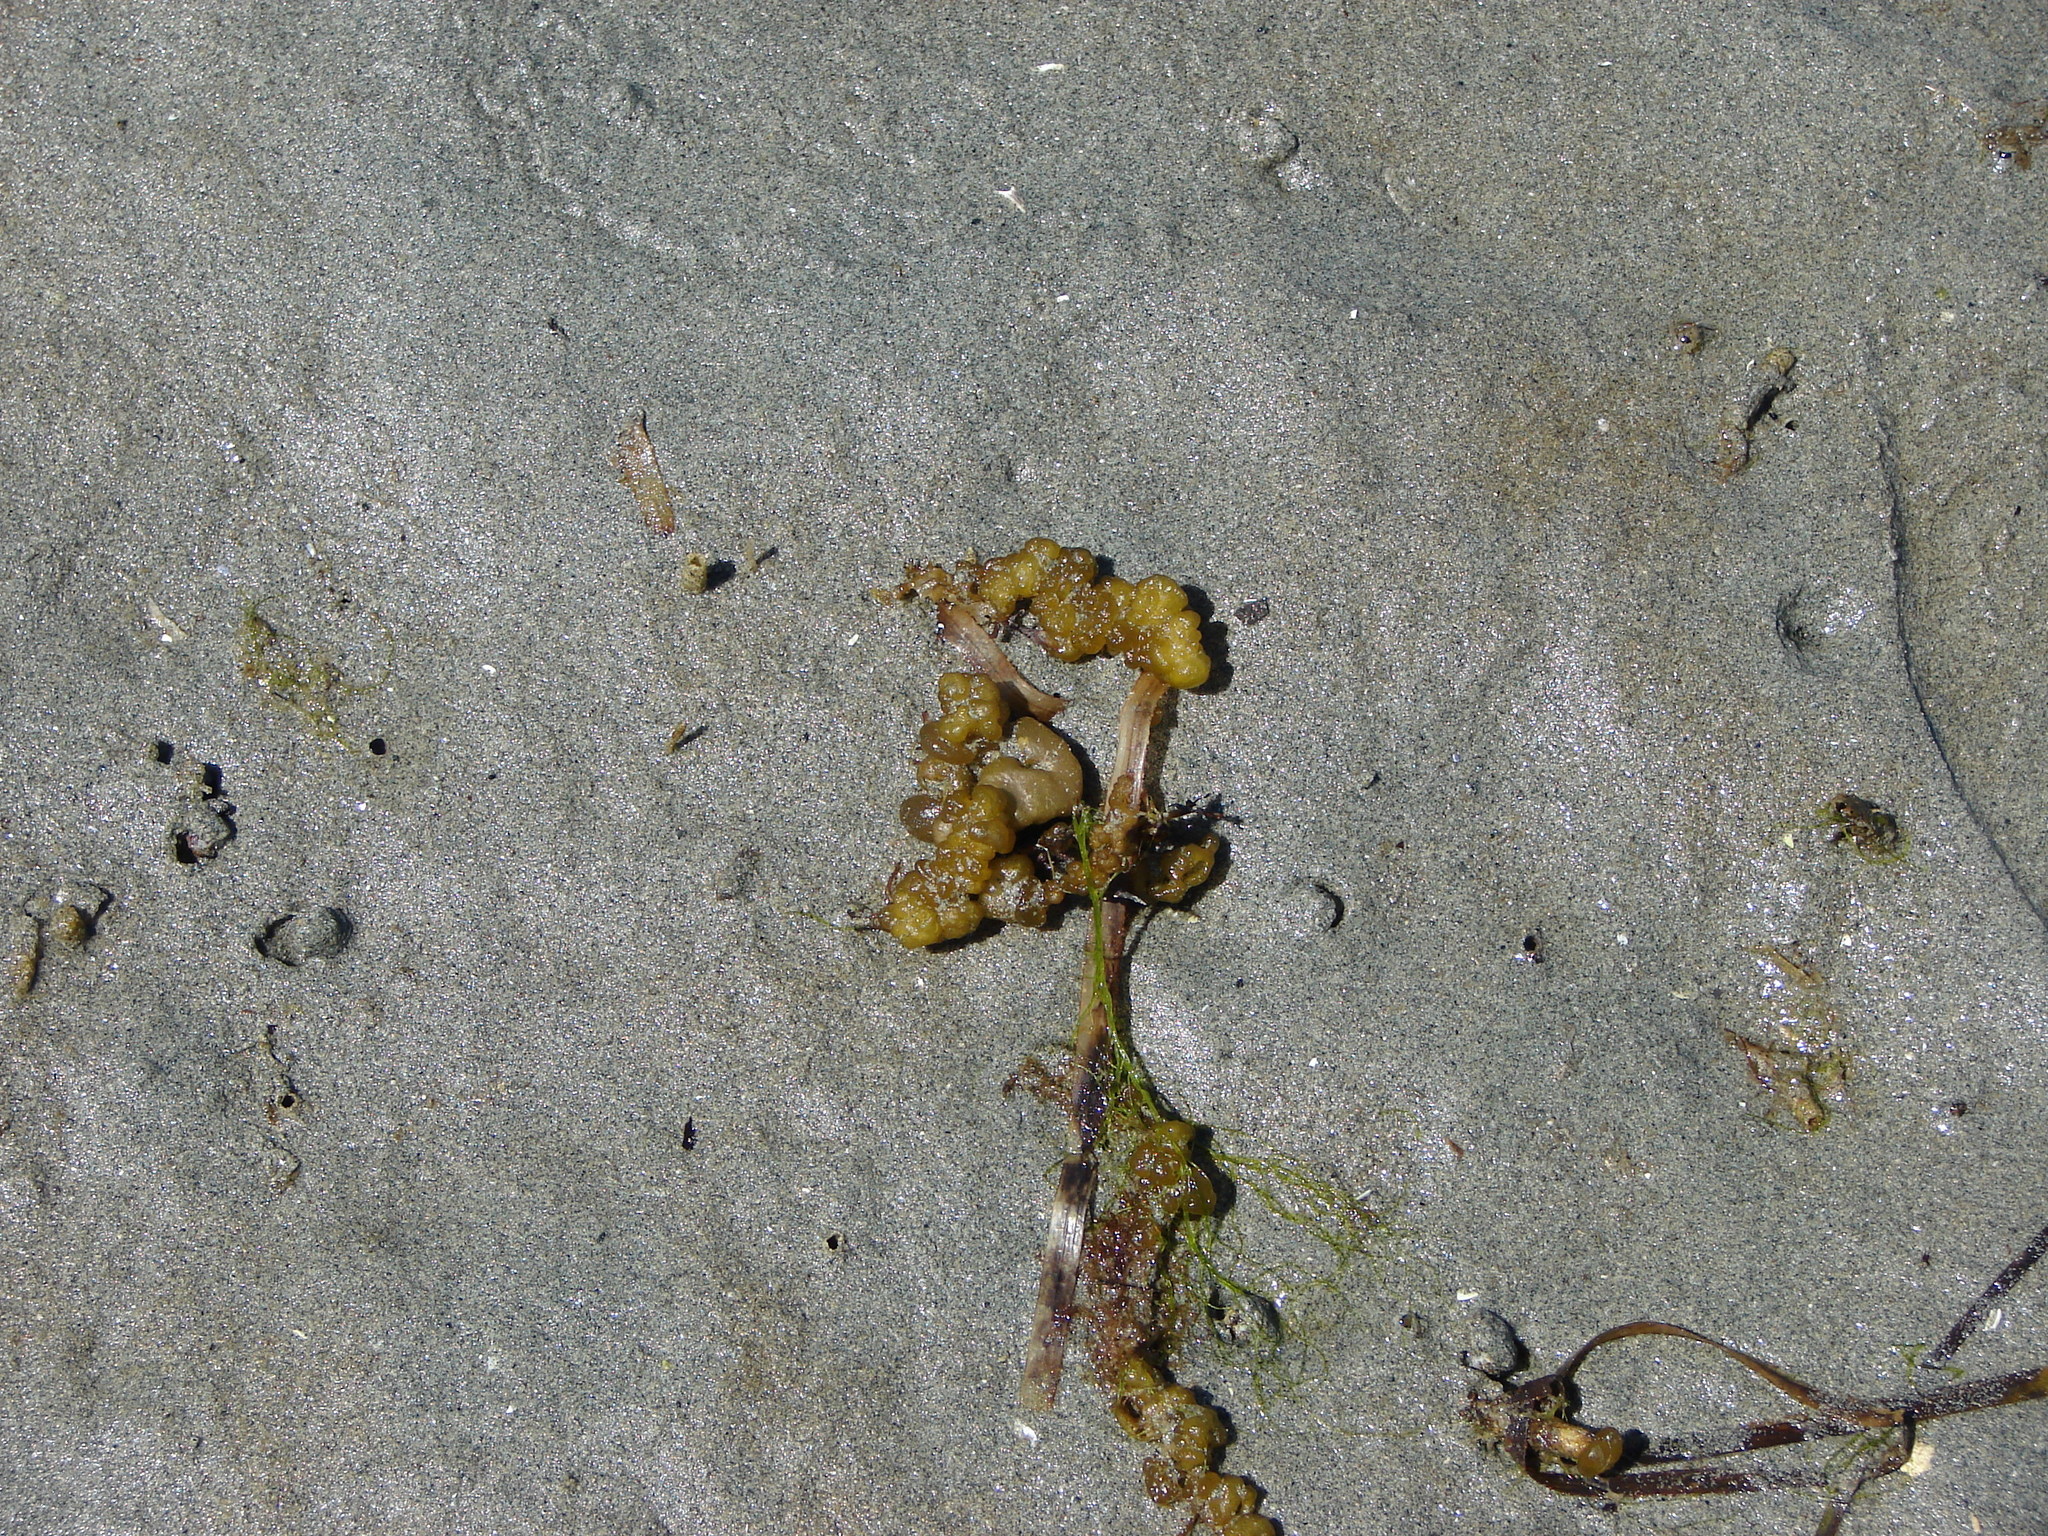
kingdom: Chromista
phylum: Ochrophyta
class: Phaeophyceae
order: Ectocarpales
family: Chordariaceae
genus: Leathesia
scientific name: Leathesia marina
